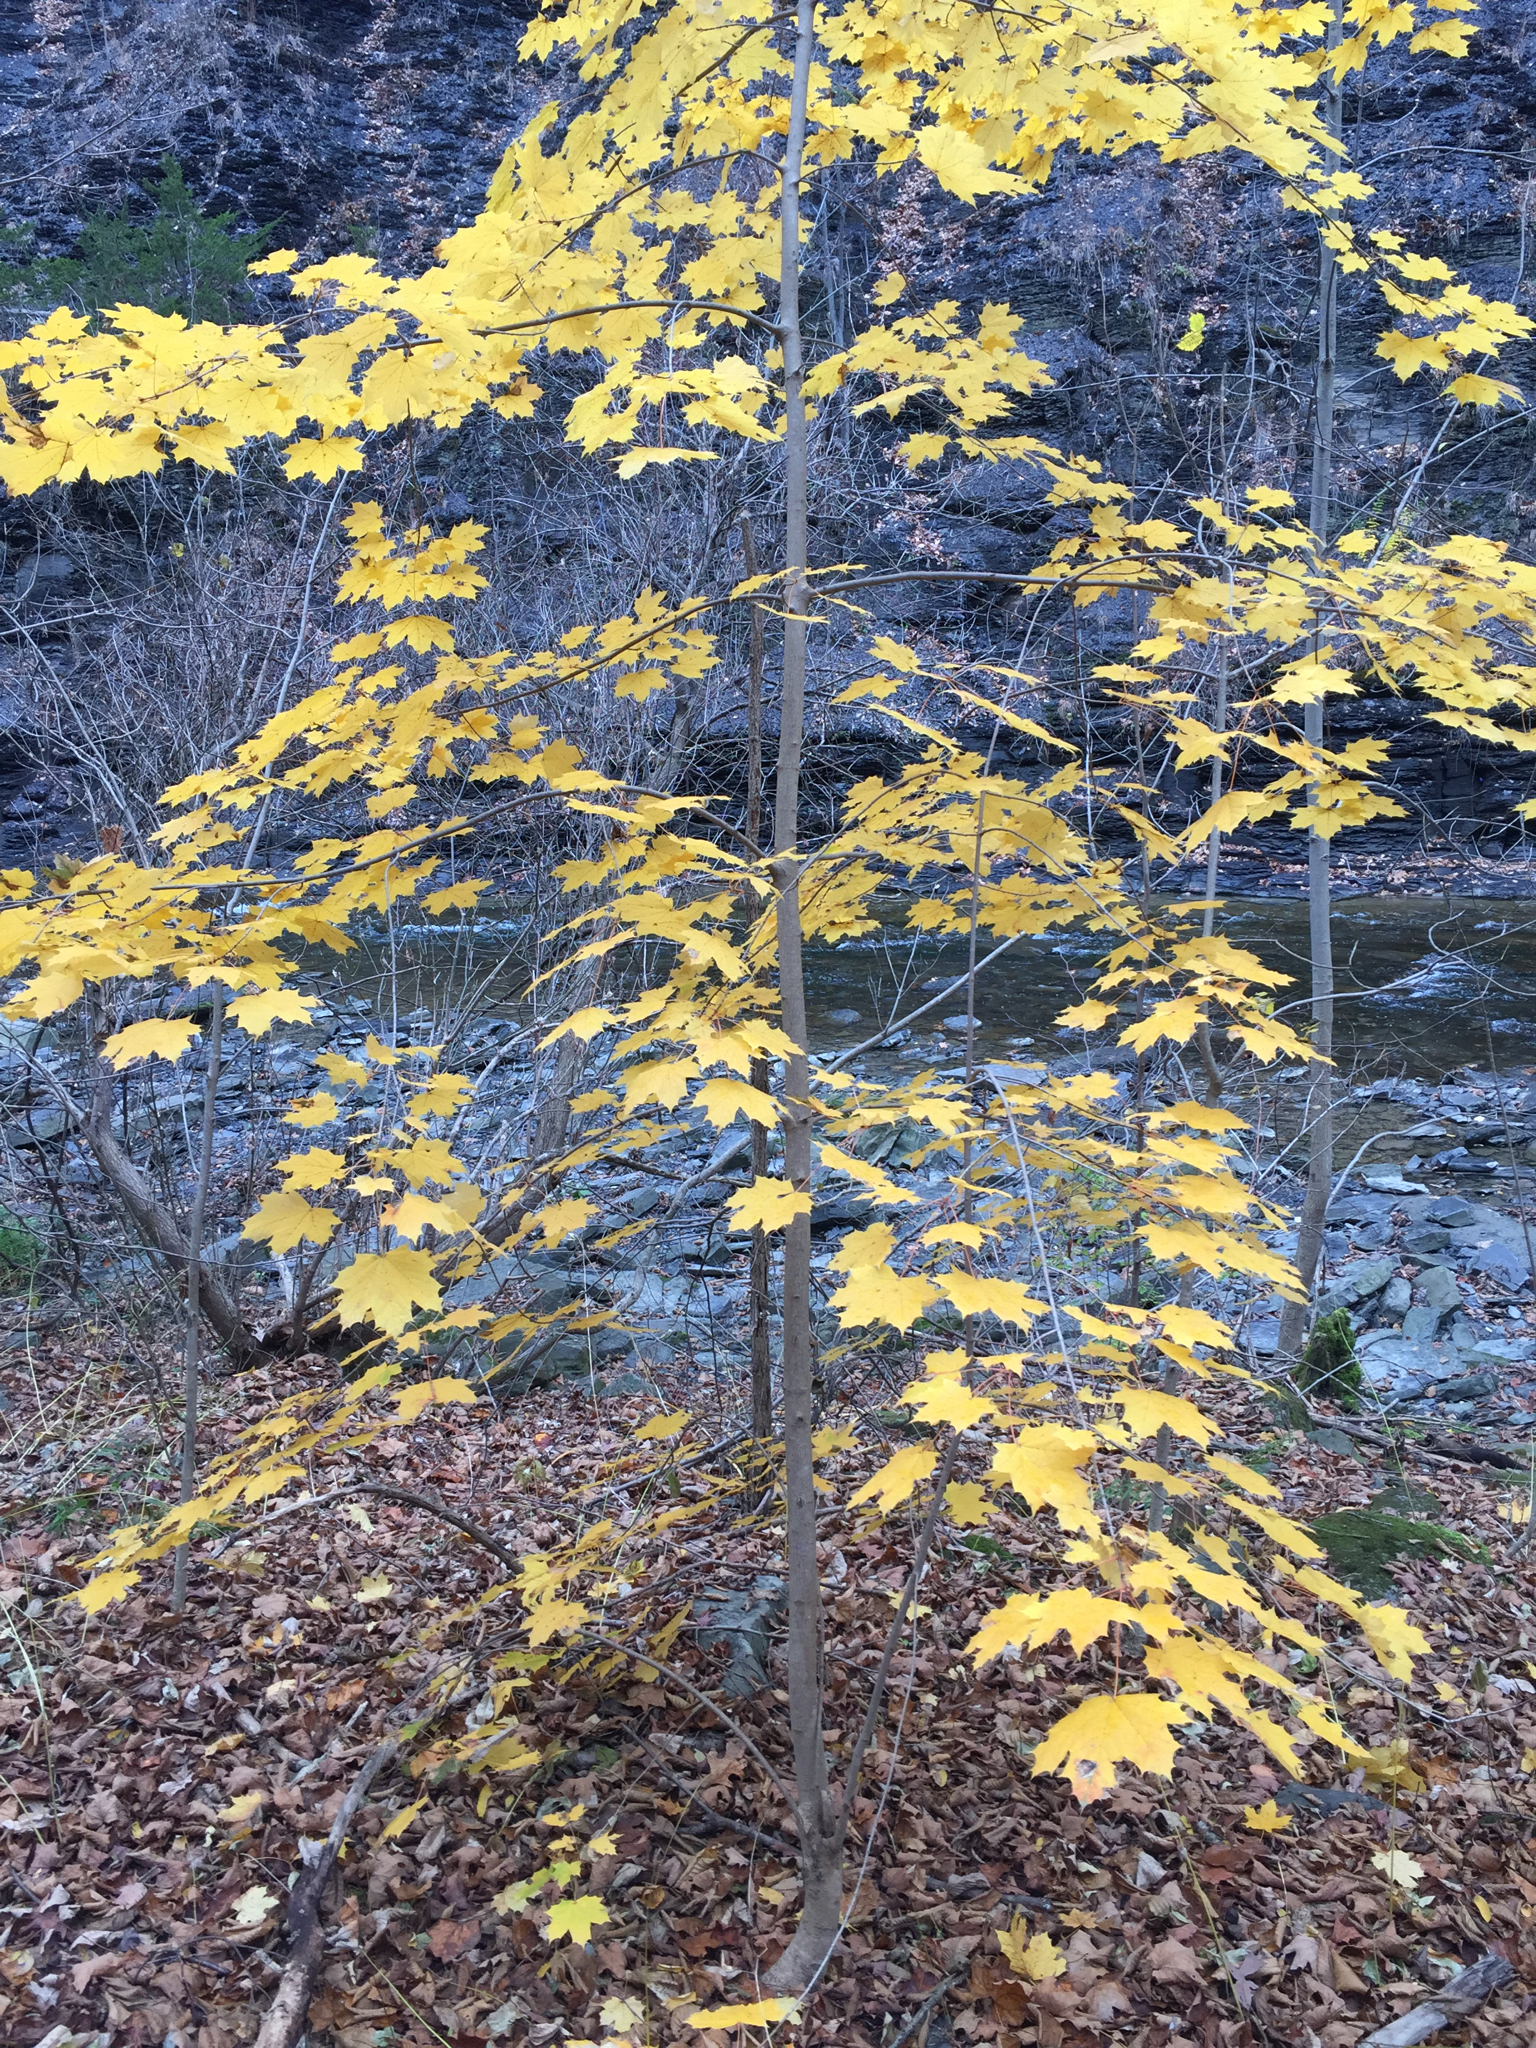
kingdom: Plantae
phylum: Tracheophyta
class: Magnoliopsida
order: Sapindales
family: Sapindaceae
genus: Acer
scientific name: Acer saccharum
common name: Sugar maple
